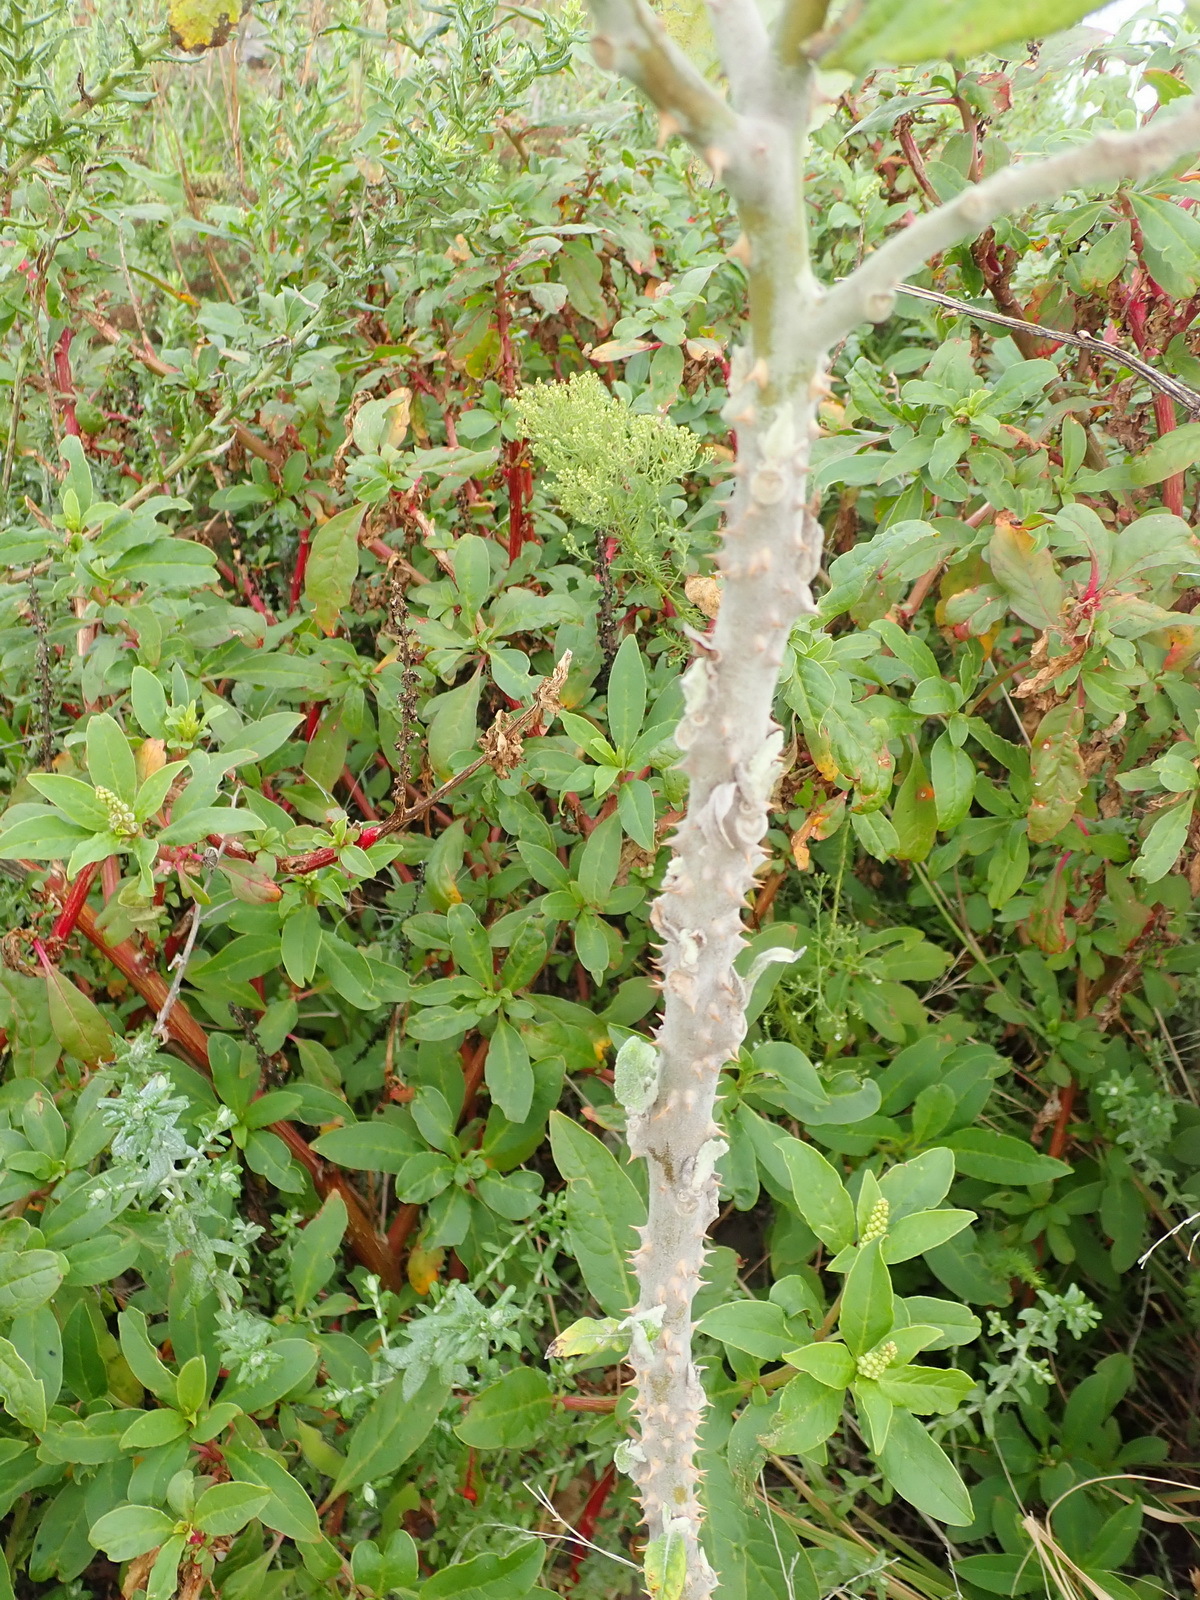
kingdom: Plantae
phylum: Tracheophyta
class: Magnoliopsida
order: Caryophyllales
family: Phytolaccaceae
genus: Phytolacca
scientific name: Phytolacca icosandra
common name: Button pokeweed
